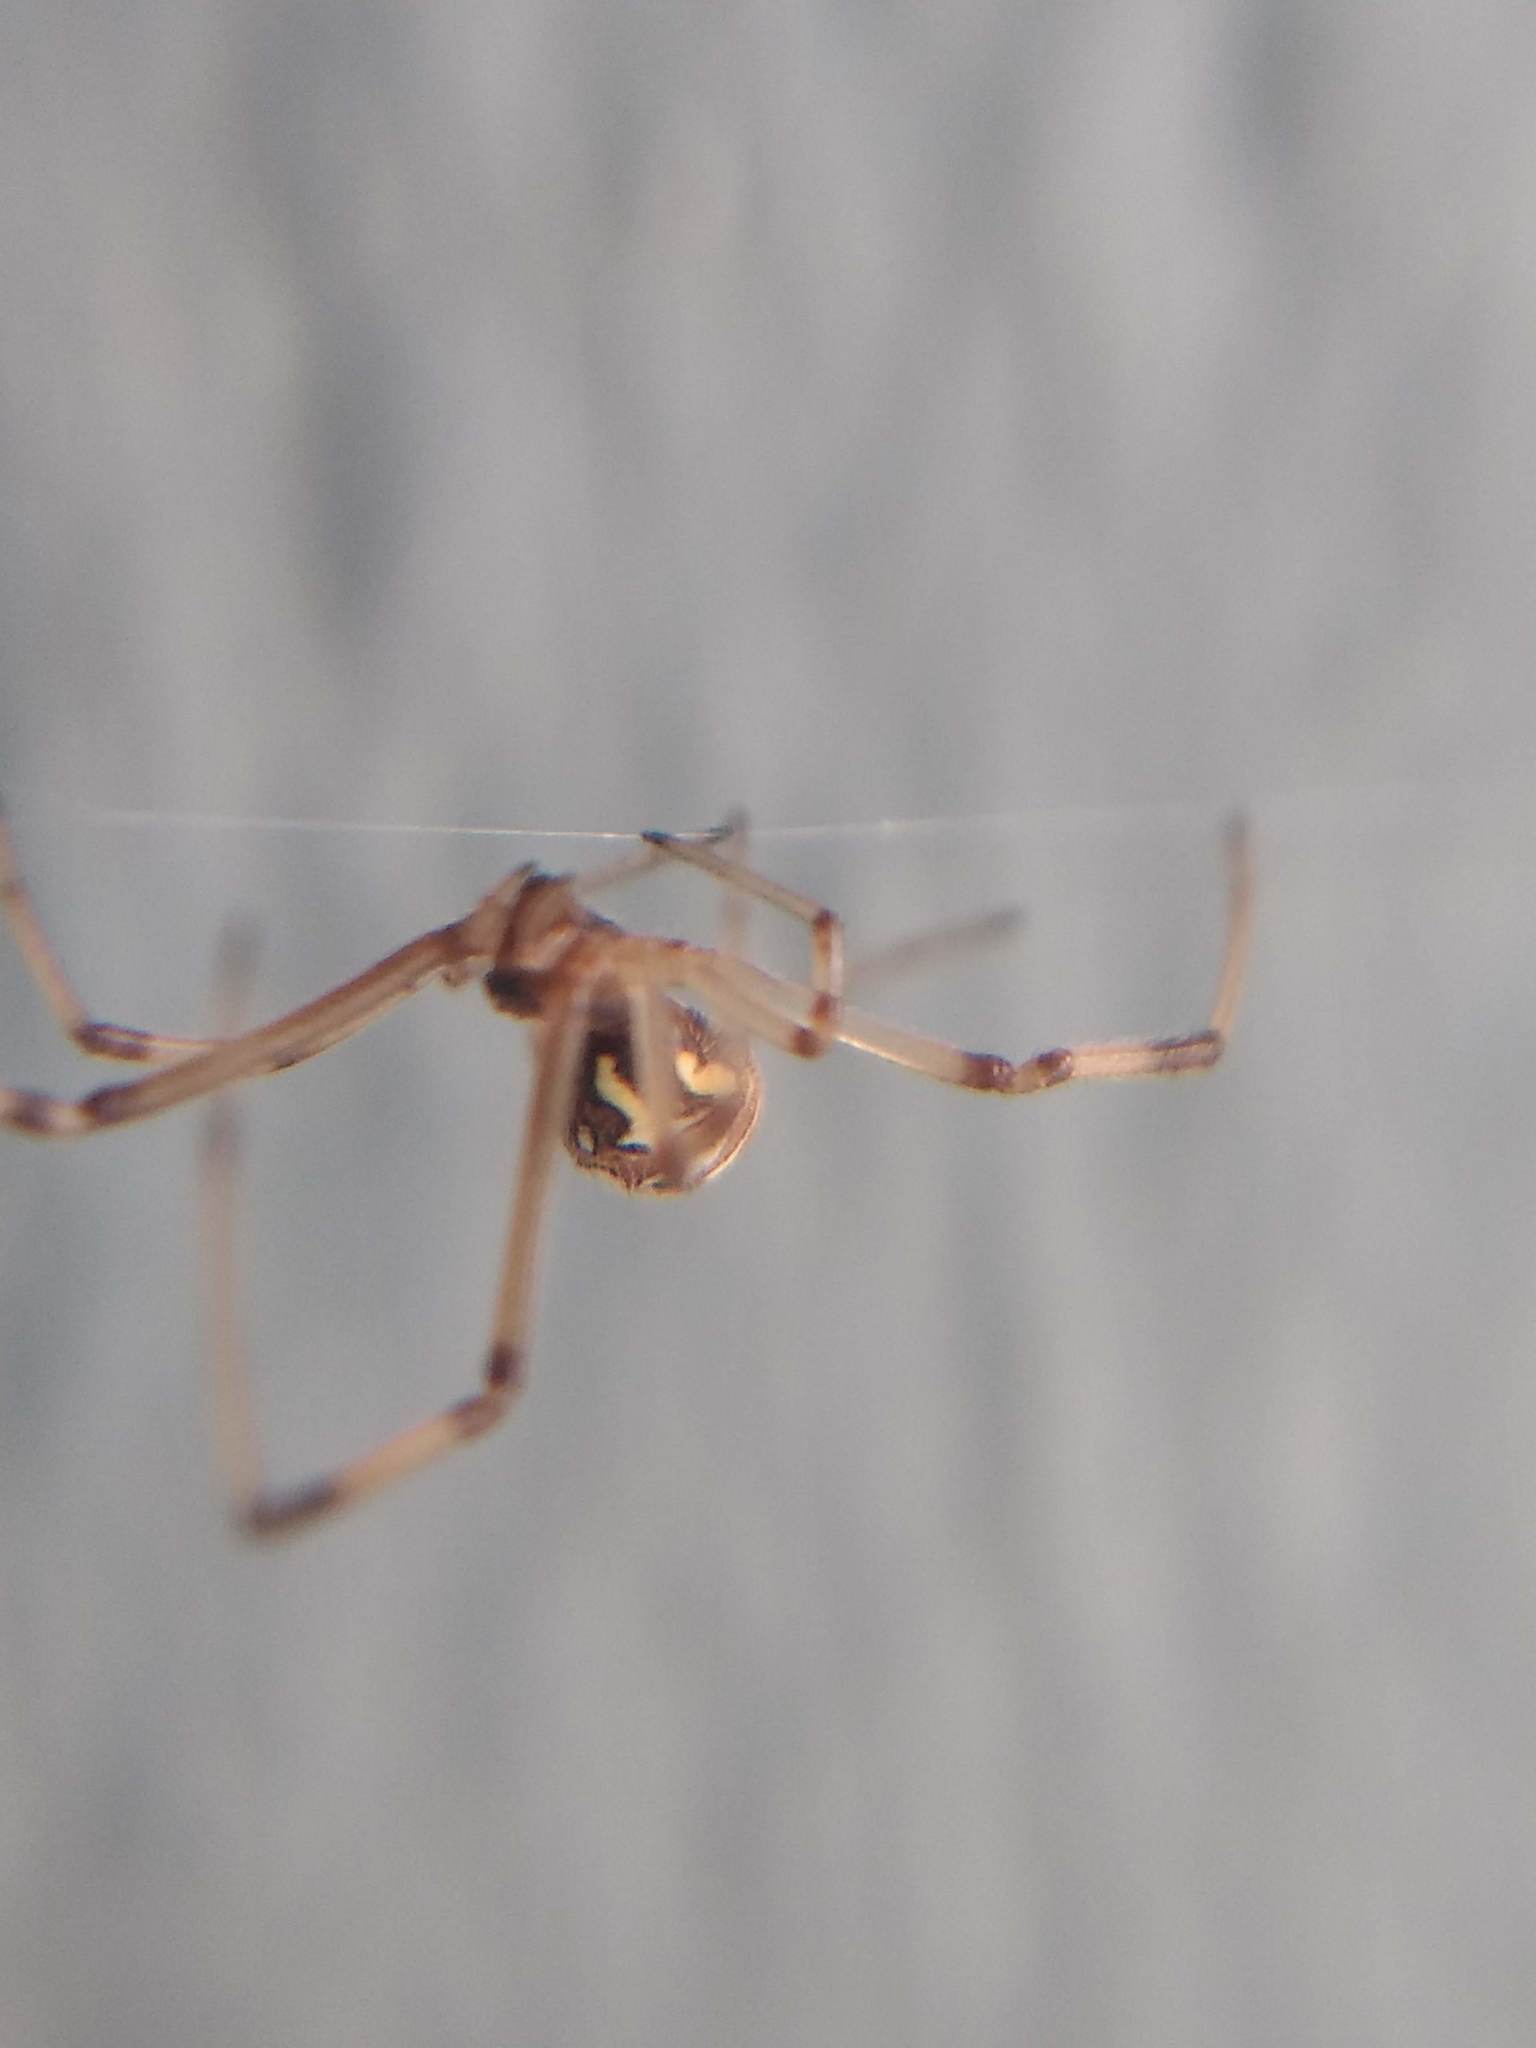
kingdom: Animalia
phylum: Arthropoda
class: Arachnida
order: Araneae
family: Theridiidae
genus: Latrodectus
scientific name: Latrodectus geometricus
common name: Brown widow spider
